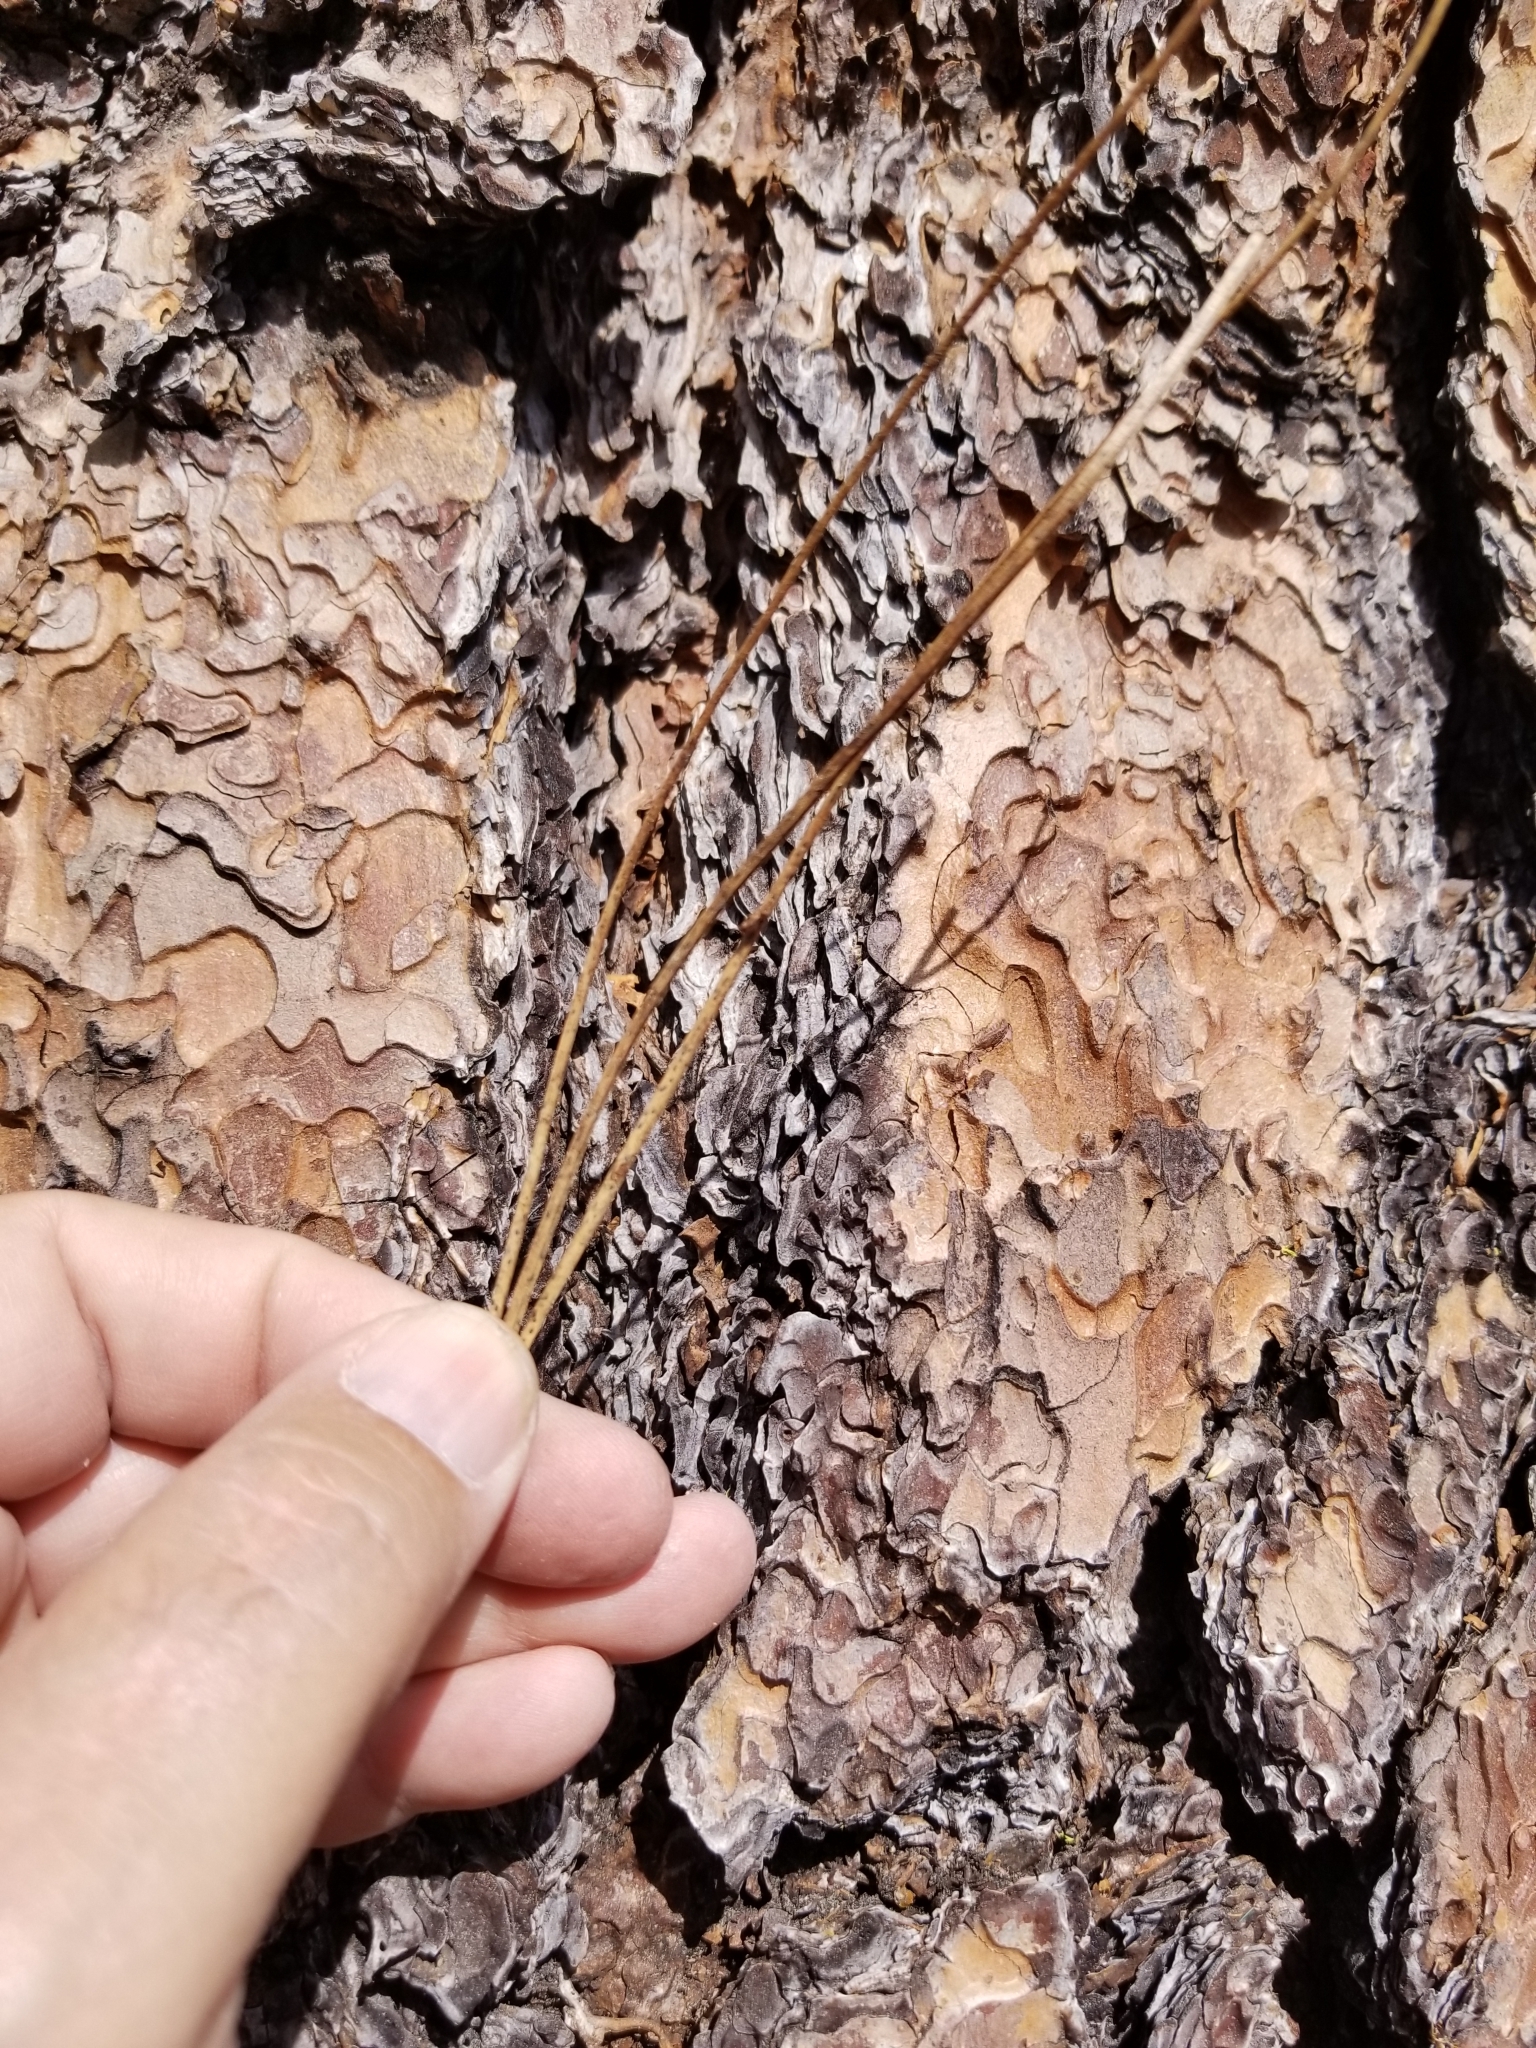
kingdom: Plantae
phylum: Tracheophyta
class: Pinopsida
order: Pinales
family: Pinaceae
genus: Pinus
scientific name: Pinus jeffreyi
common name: Jeffrey pine
